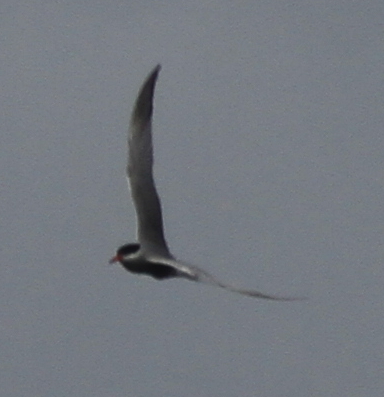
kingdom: Animalia
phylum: Chordata
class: Aves
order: Charadriiformes
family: Laridae
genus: Sterna
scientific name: Sterna hirundo
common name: Common tern
